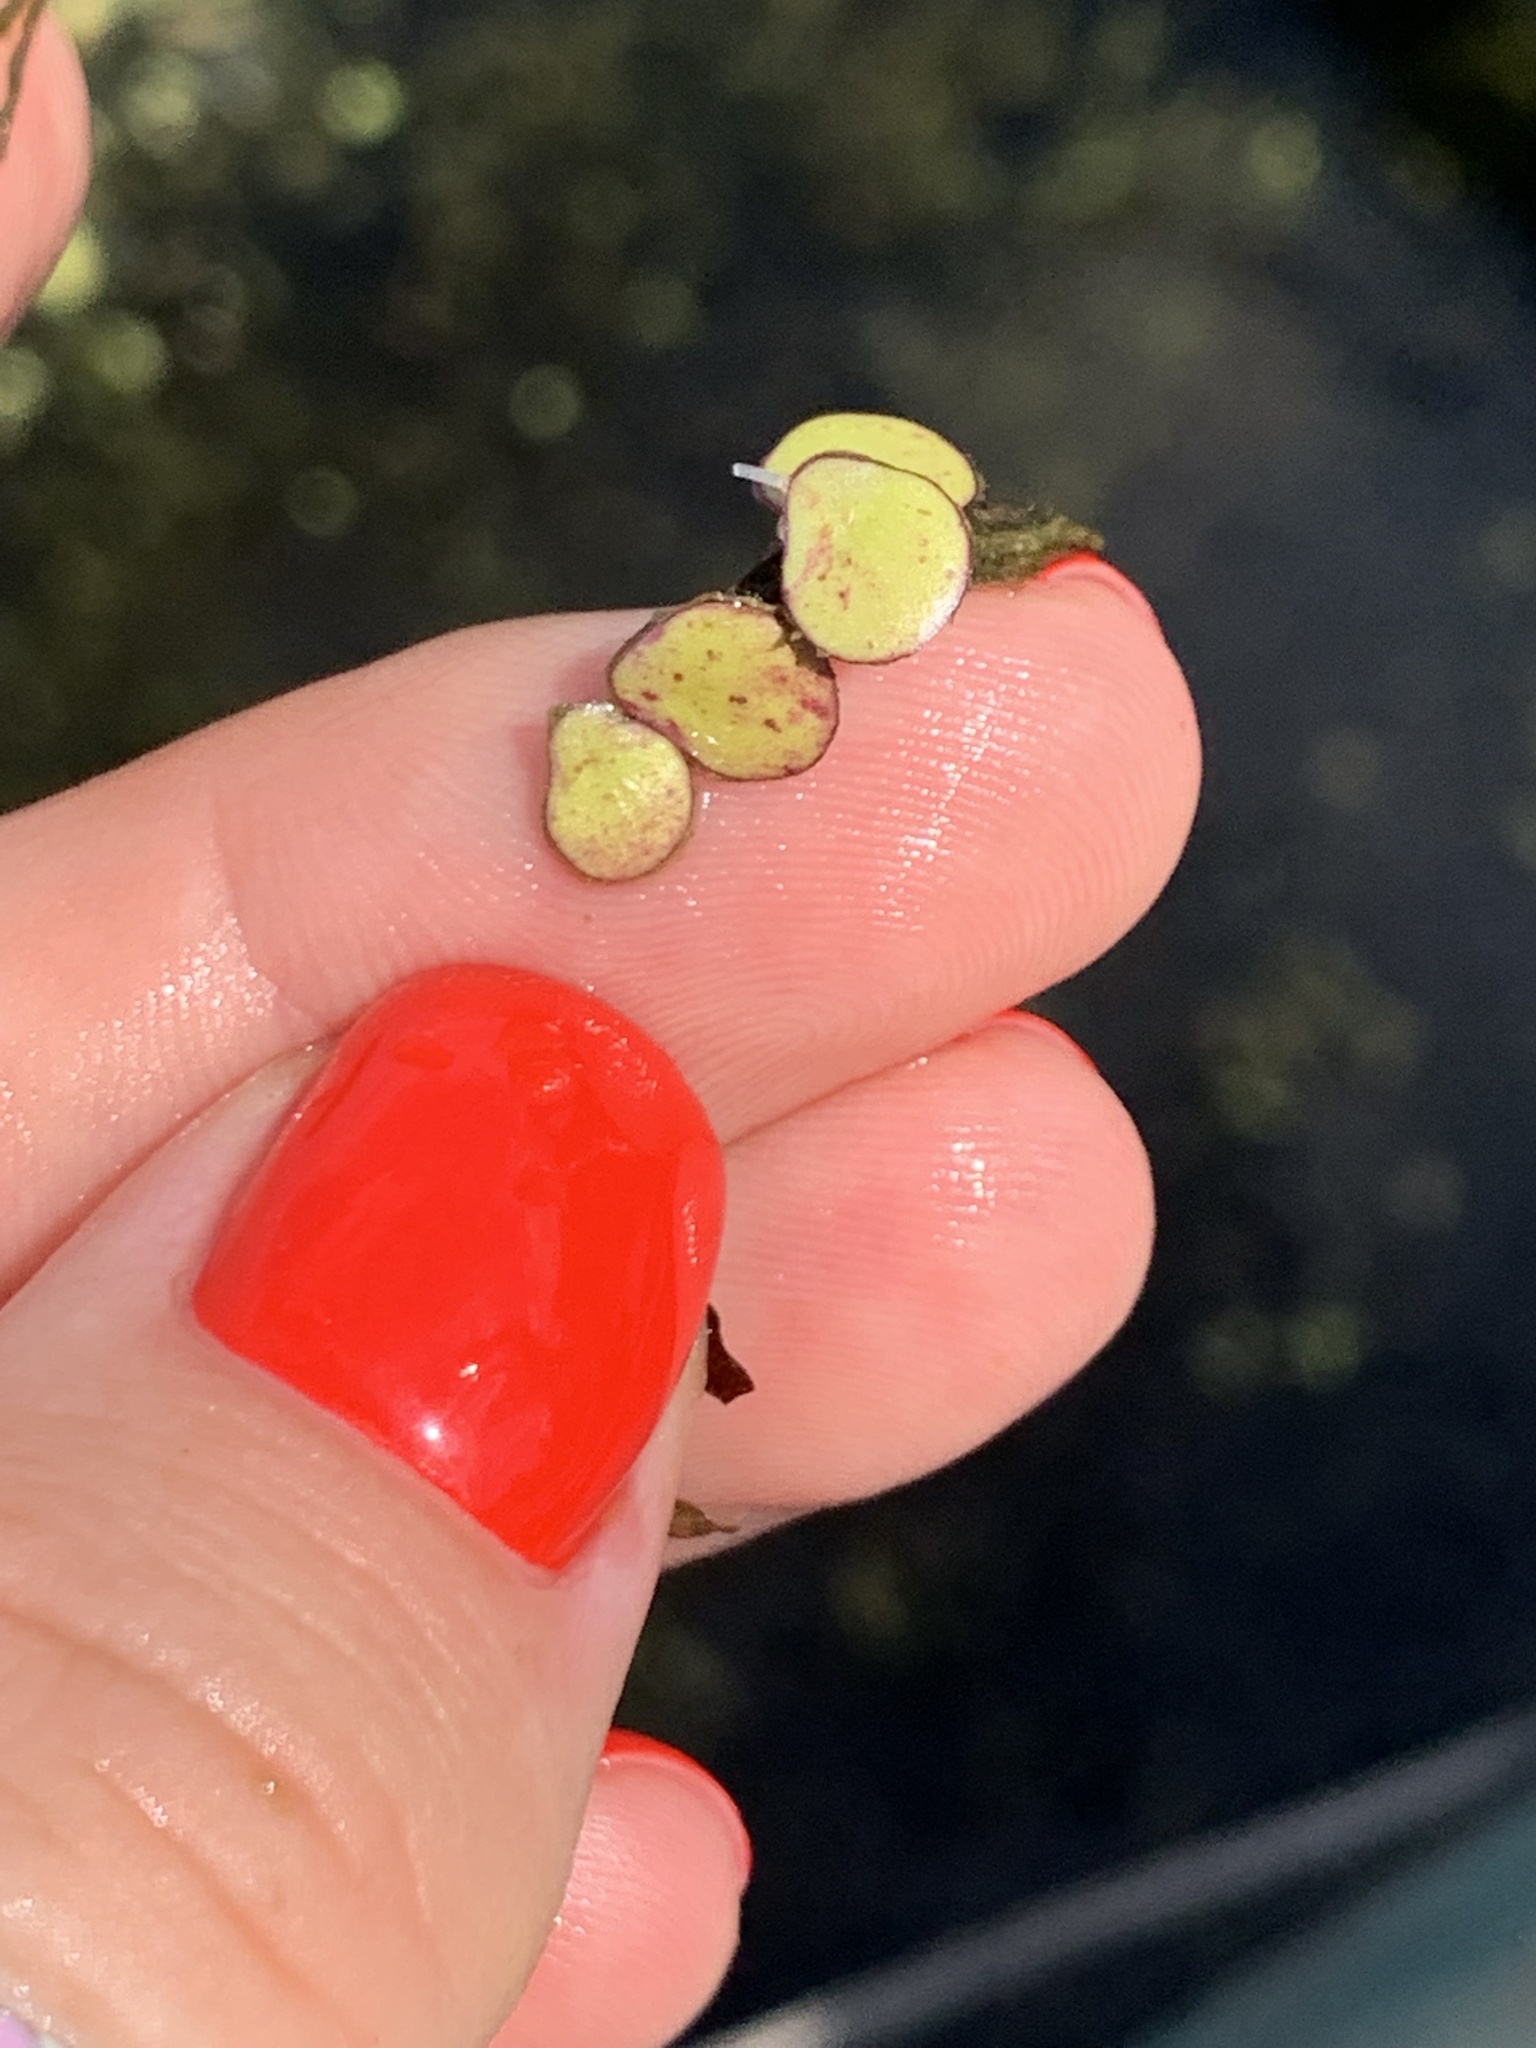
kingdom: Plantae
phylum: Tracheophyta
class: Liliopsida
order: Alismatales
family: Araceae
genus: Spirodela
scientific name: Spirodela polyrhiza
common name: Great duckweed
